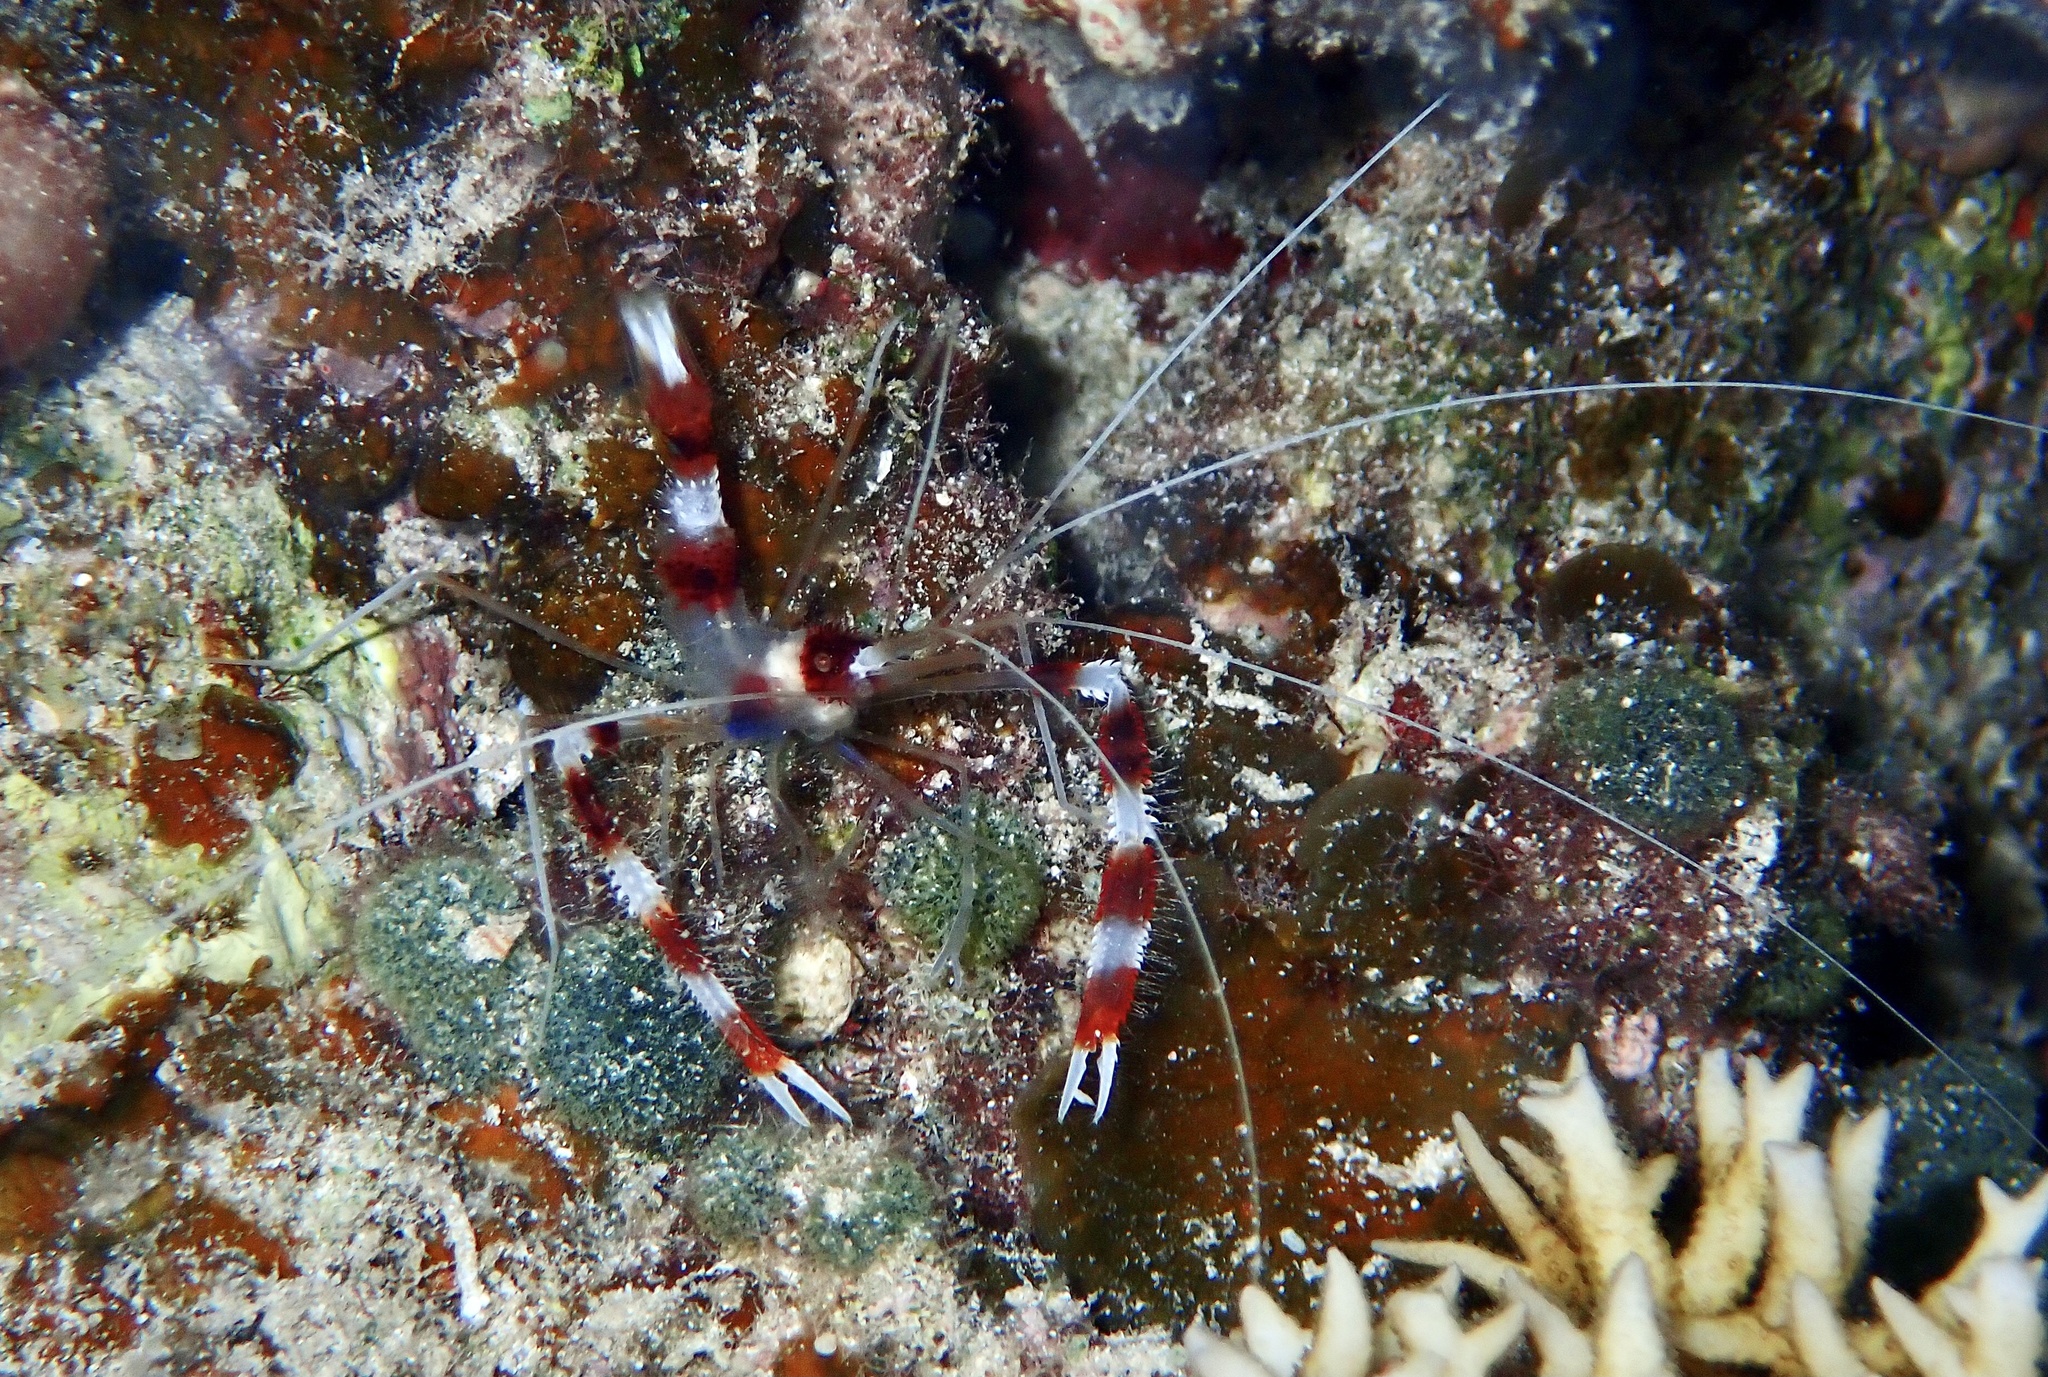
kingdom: Animalia
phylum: Arthropoda
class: Malacostraca
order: Decapoda
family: Stenopodidae
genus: Stenopus
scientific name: Stenopus hispidus
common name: Banded coral shrimp
